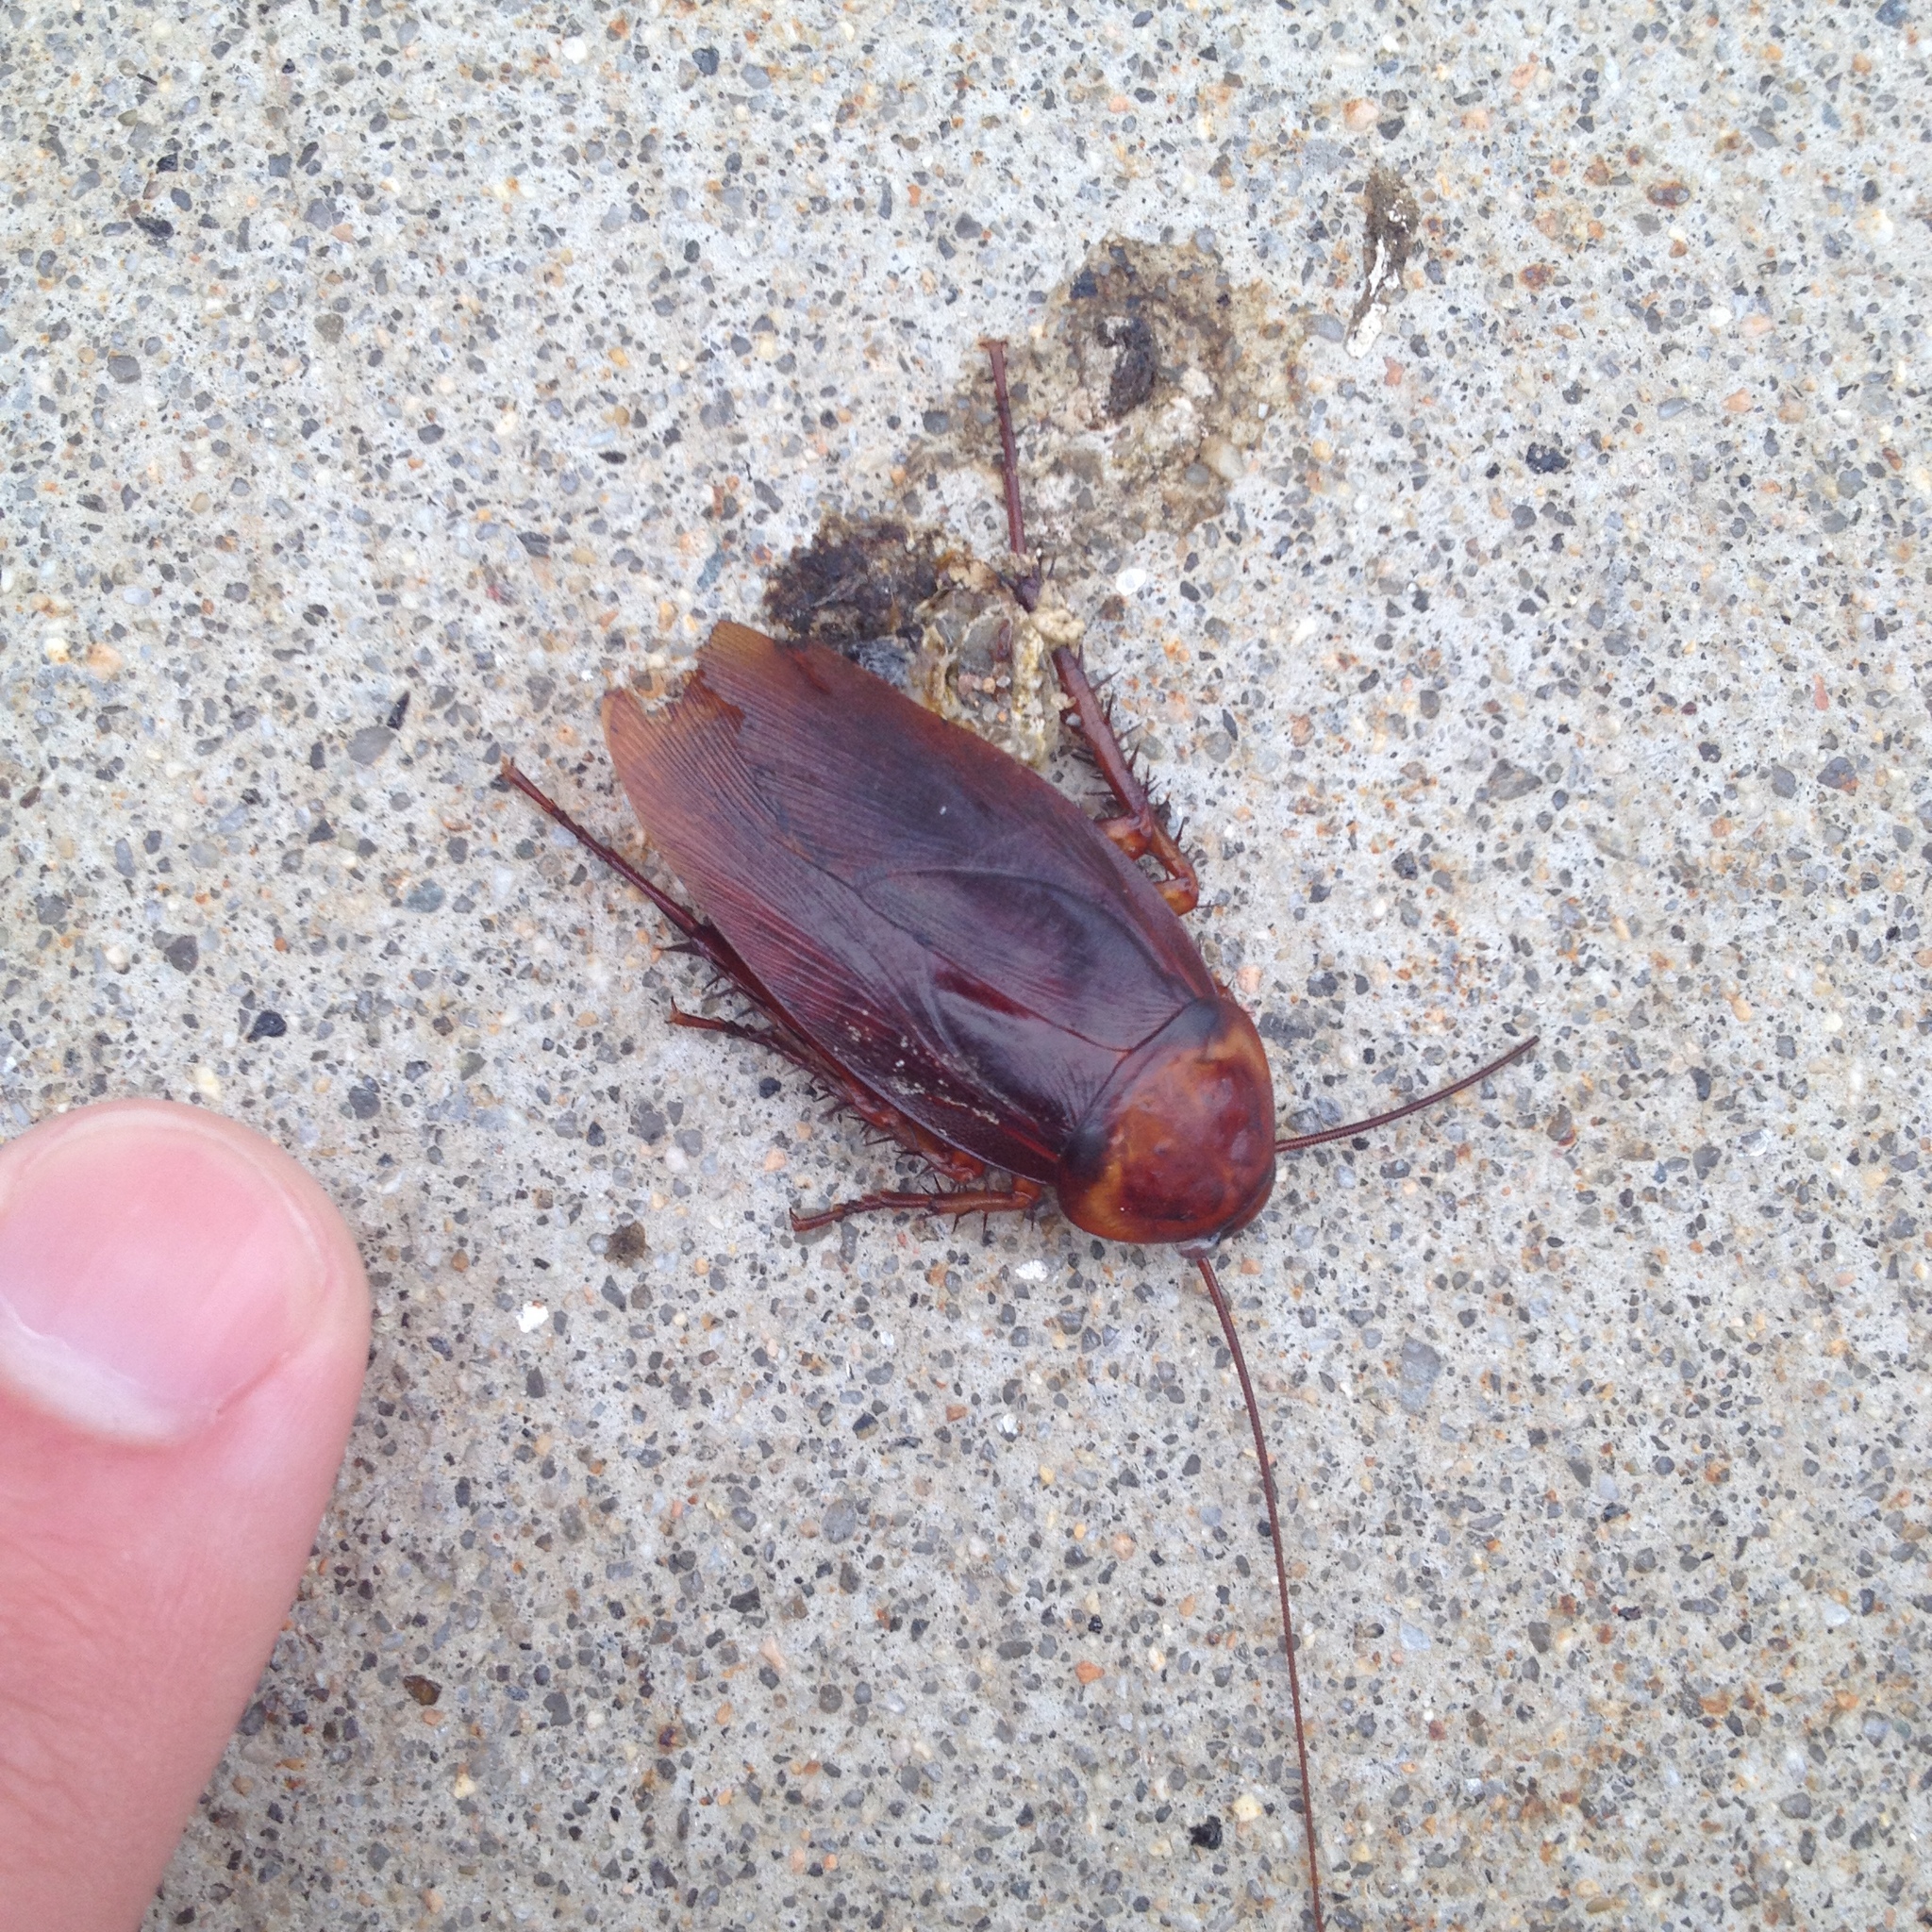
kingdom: Animalia
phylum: Arthropoda
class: Insecta
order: Blattodea
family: Blattidae
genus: Periplaneta
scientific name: Periplaneta americana
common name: American cockroach
